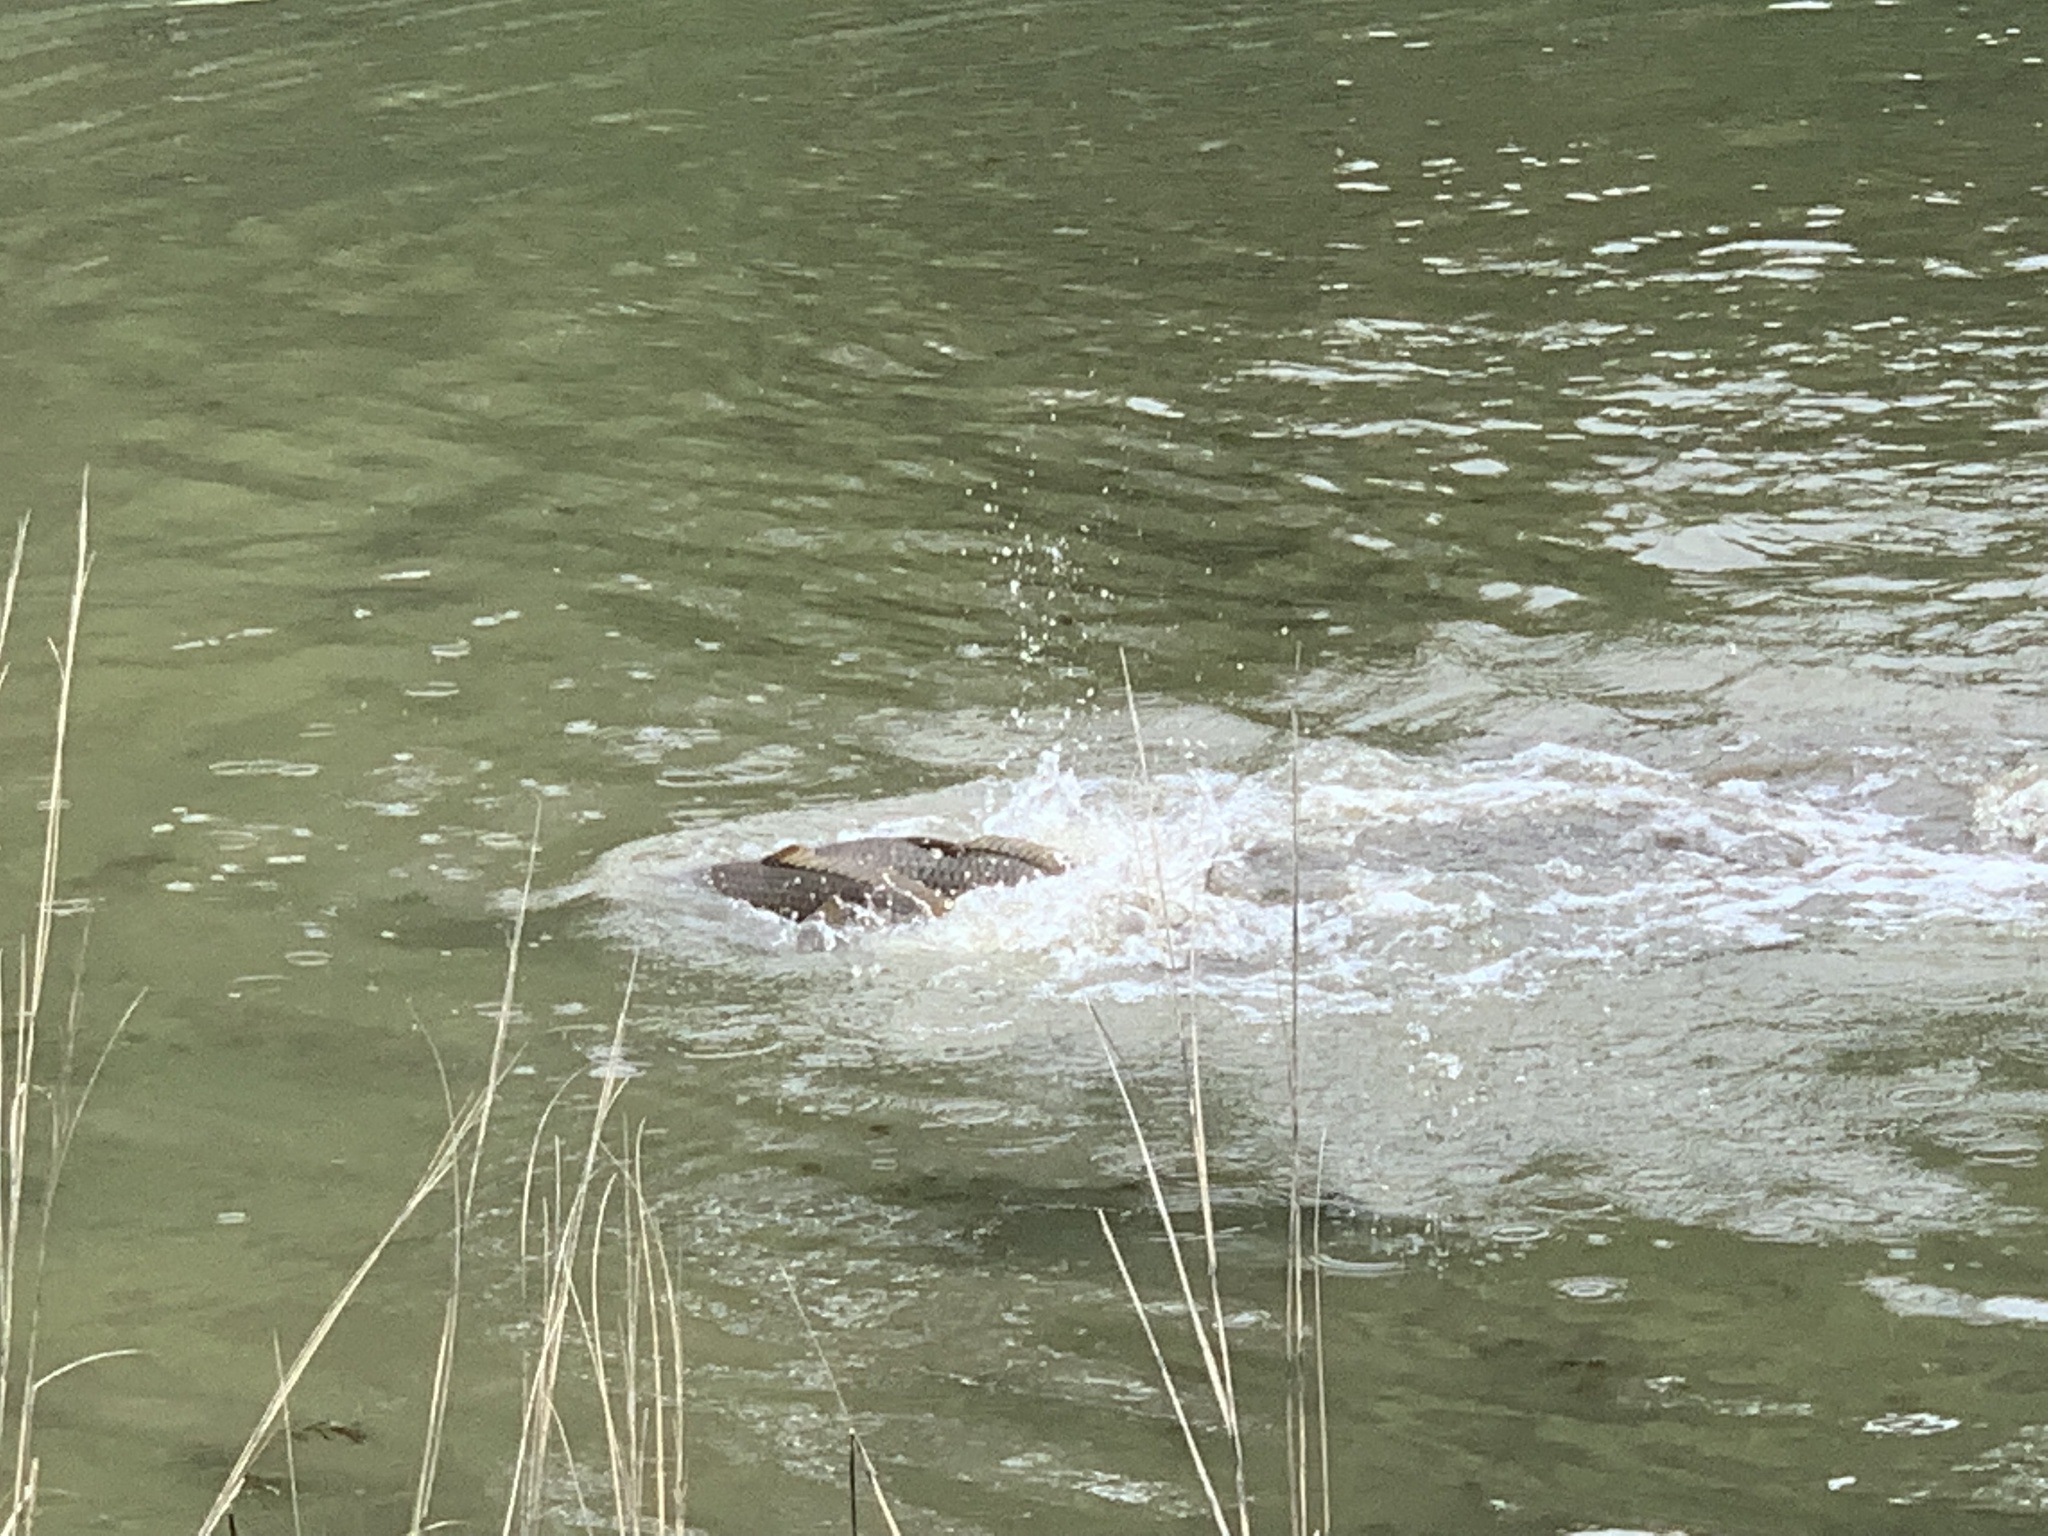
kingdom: Animalia
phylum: Chordata
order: Cypriniformes
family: Cyprinidae
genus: Cyprinus
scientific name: Cyprinus carpio
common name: Common carp
